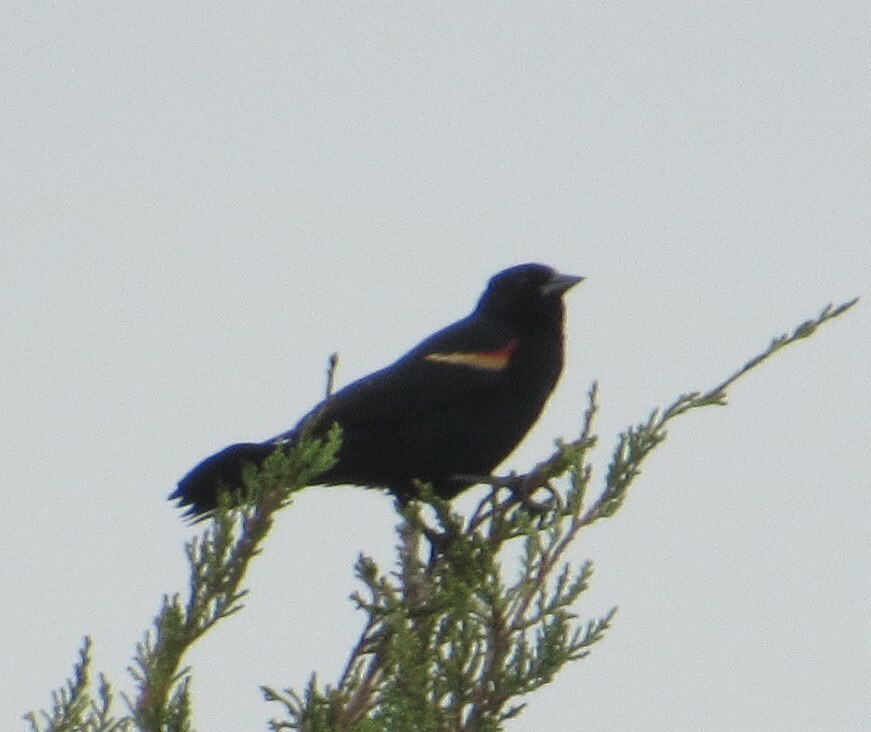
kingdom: Animalia
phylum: Chordata
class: Aves
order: Passeriformes
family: Icteridae
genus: Agelaius
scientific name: Agelaius phoeniceus
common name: Red-winged blackbird
